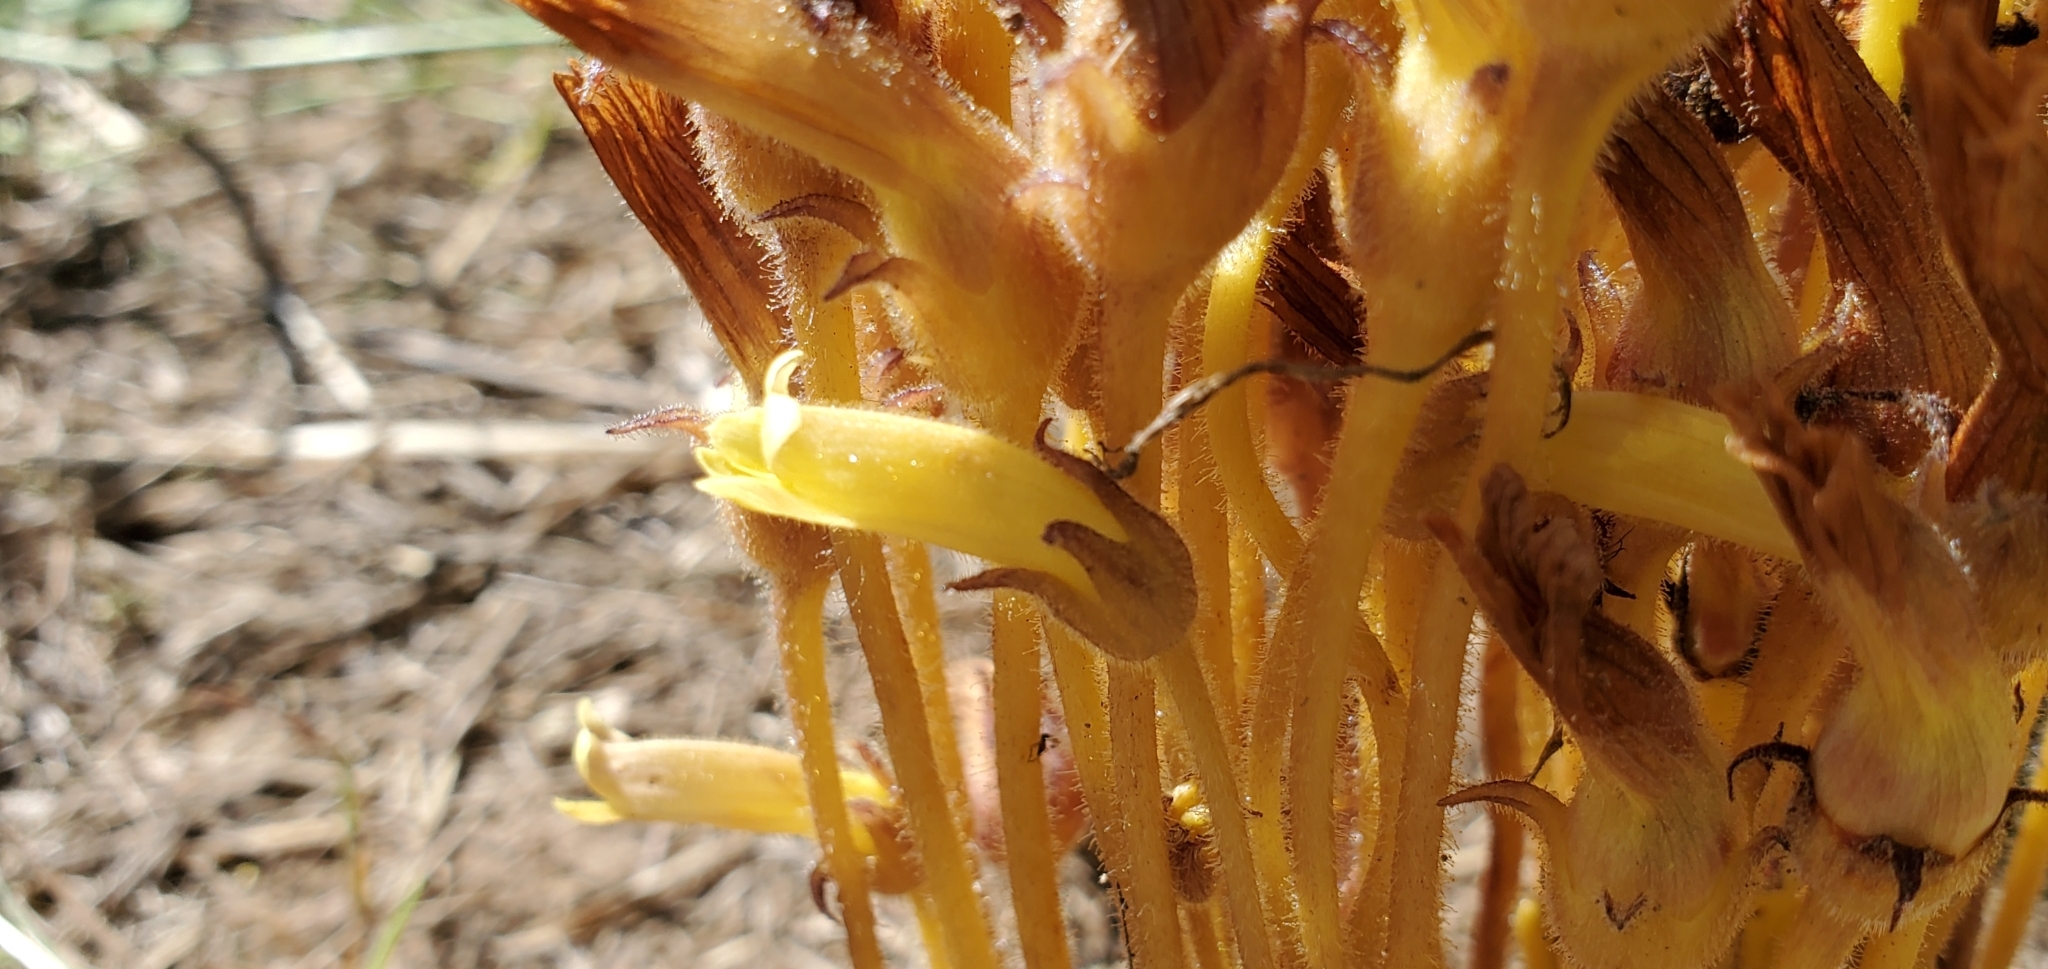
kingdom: Plantae
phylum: Tracheophyta
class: Magnoliopsida
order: Lamiales
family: Orobanchaceae
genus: Aphyllon
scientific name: Aphyllon franciscanum
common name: San francisco broomrape
